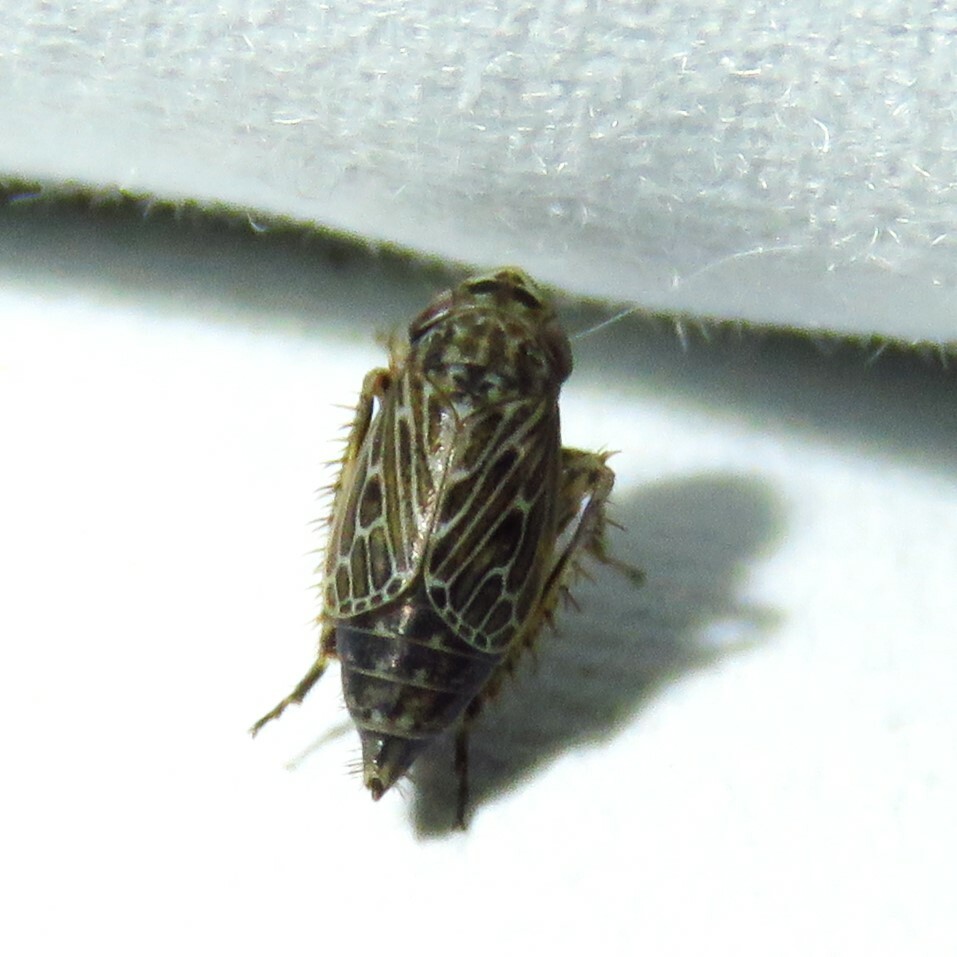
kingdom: Animalia
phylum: Arthropoda
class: Insecta
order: Hemiptera
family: Cicadellidae
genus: Extrusanus
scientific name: Extrusanus ovatus
